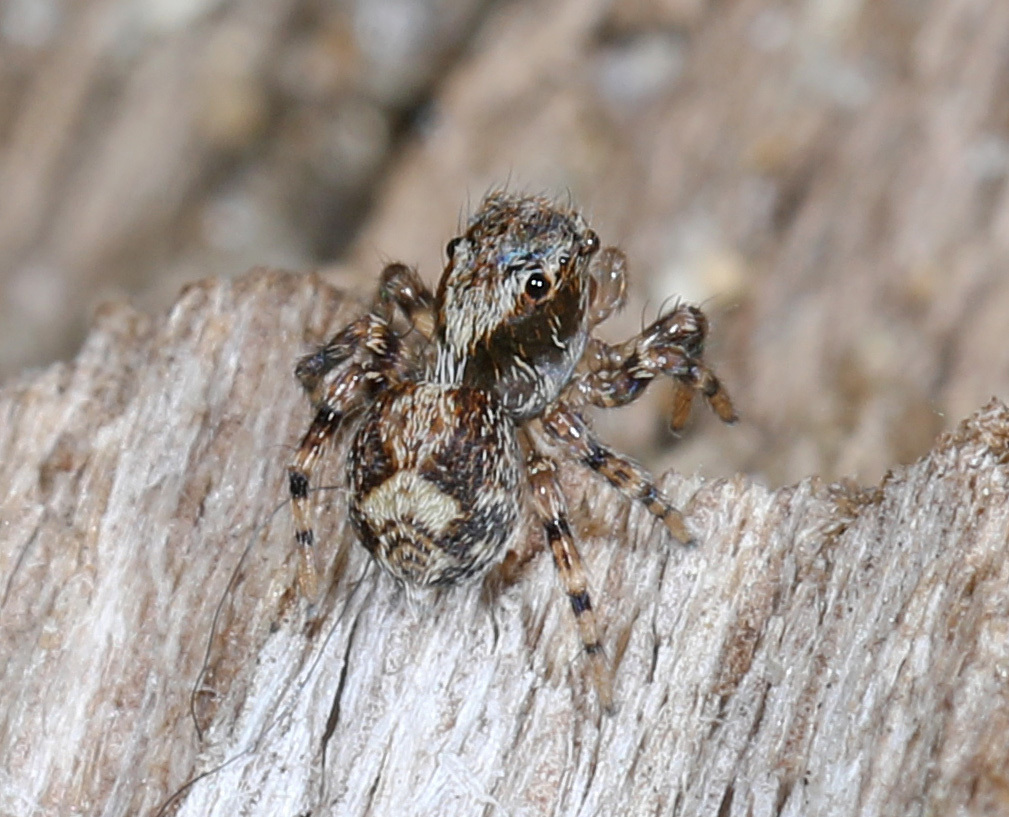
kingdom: Animalia
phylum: Arthropoda
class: Arachnida
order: Araneae
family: Salticidae
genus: Naphrys
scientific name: Naphrys pulex
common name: Flea jumping spider
